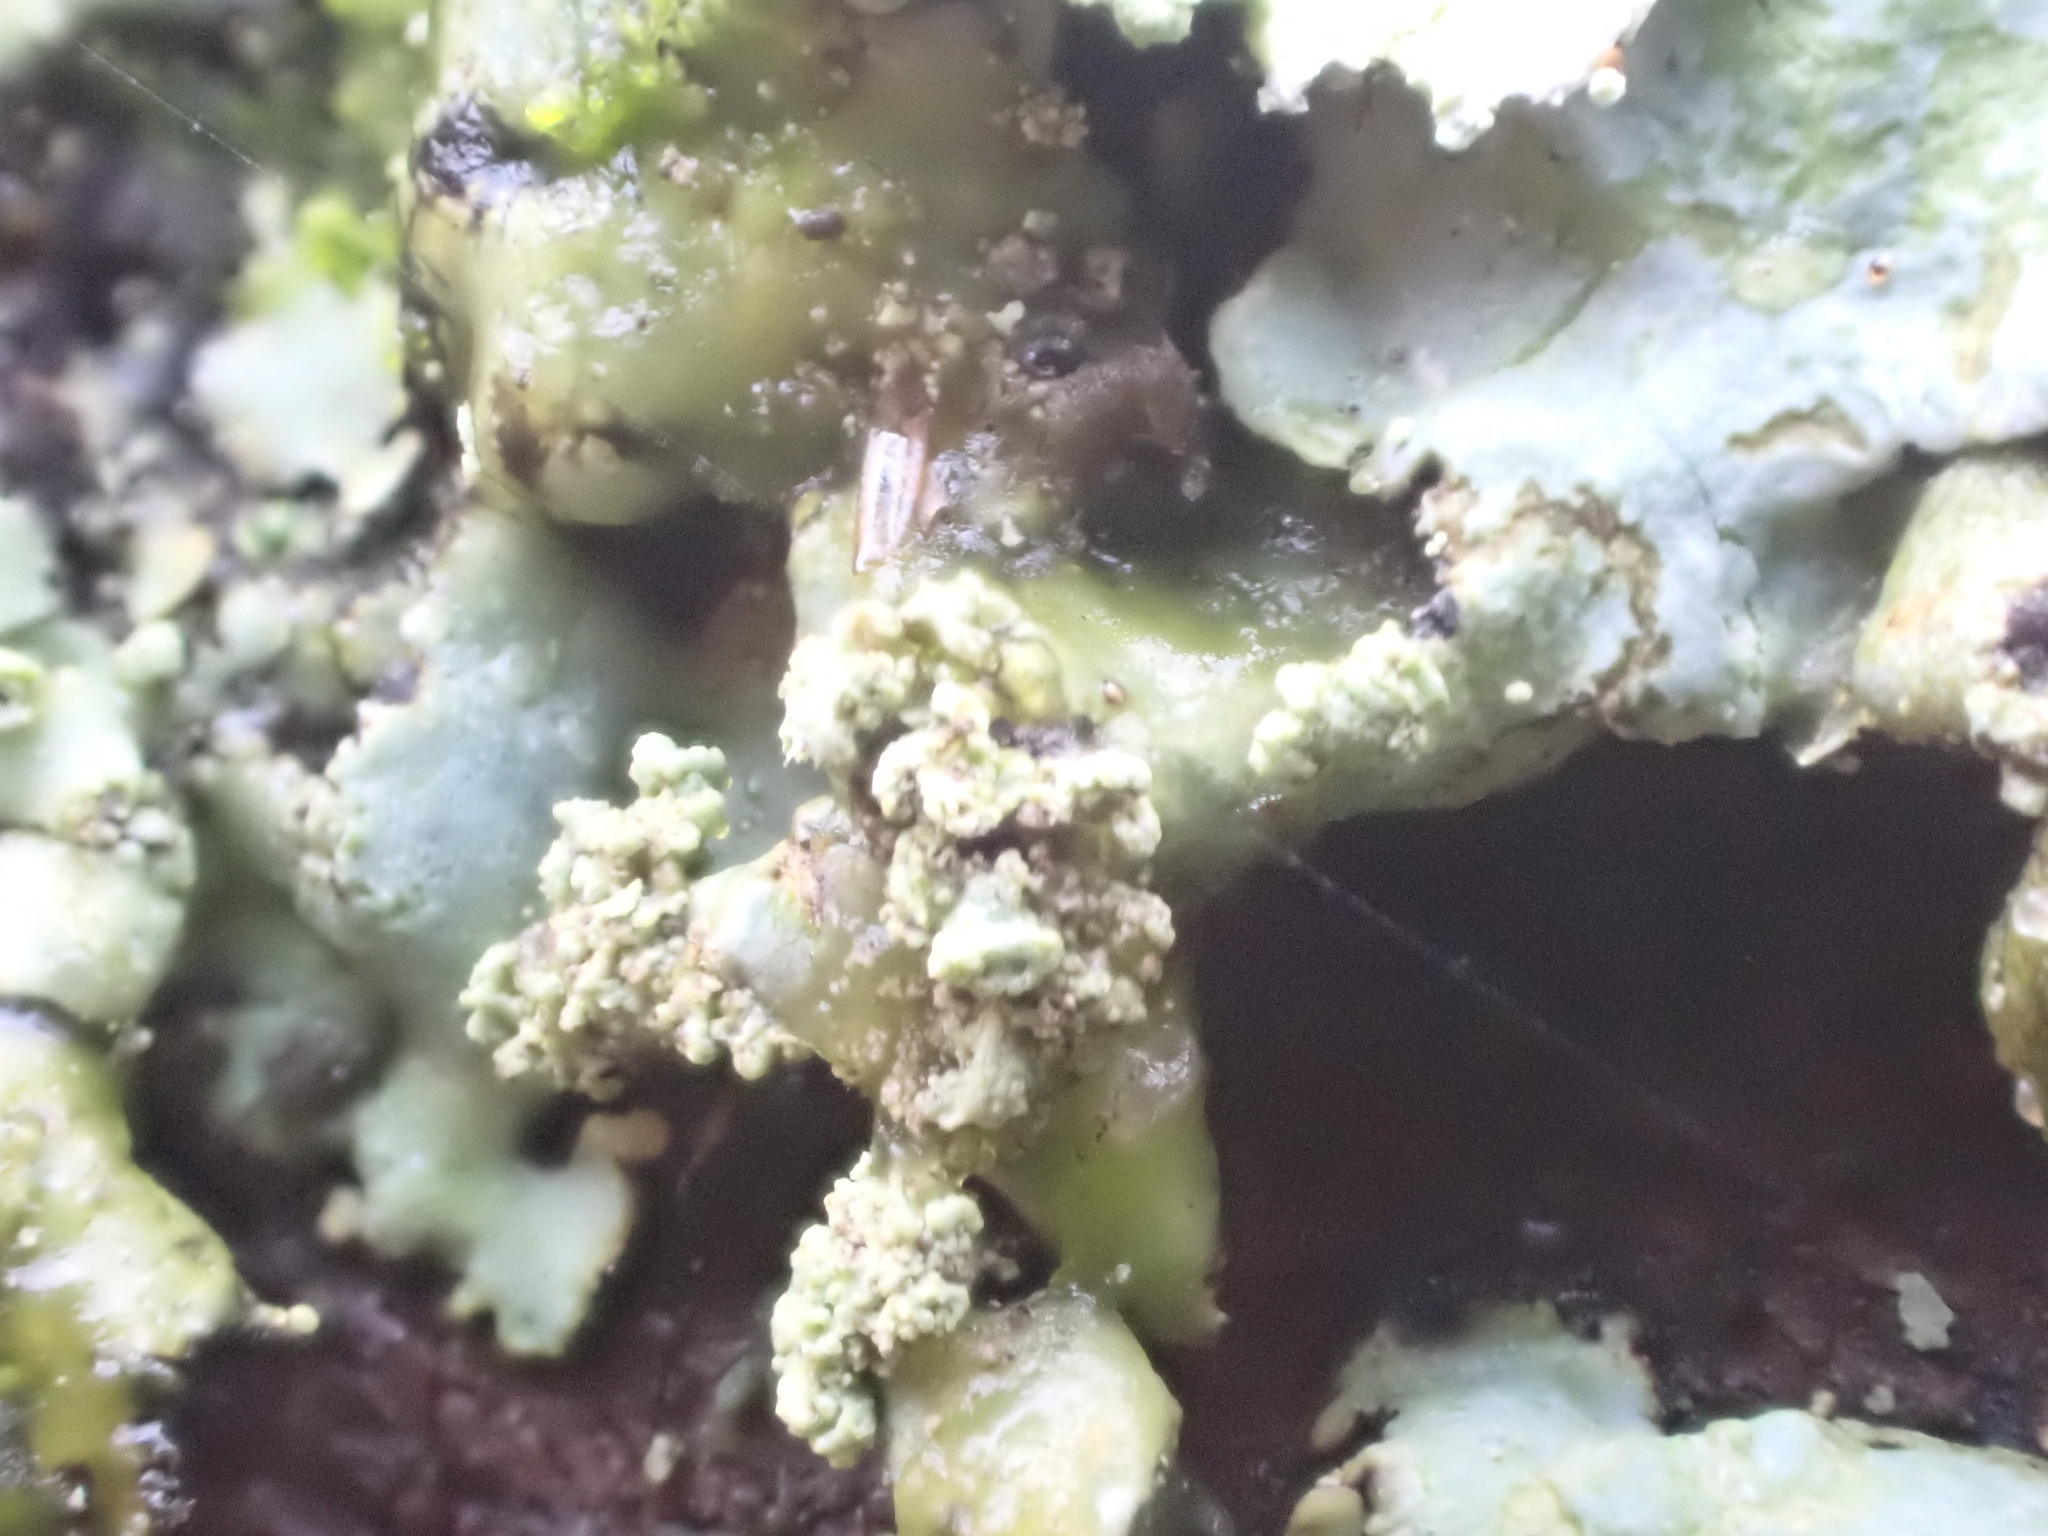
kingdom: Fungi
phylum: Ascomycota
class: Lecanoromycetes
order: Lecanorales
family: Parmeliaceae
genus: Hypotrachyna
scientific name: Hypotrachyna afrorevoluta
